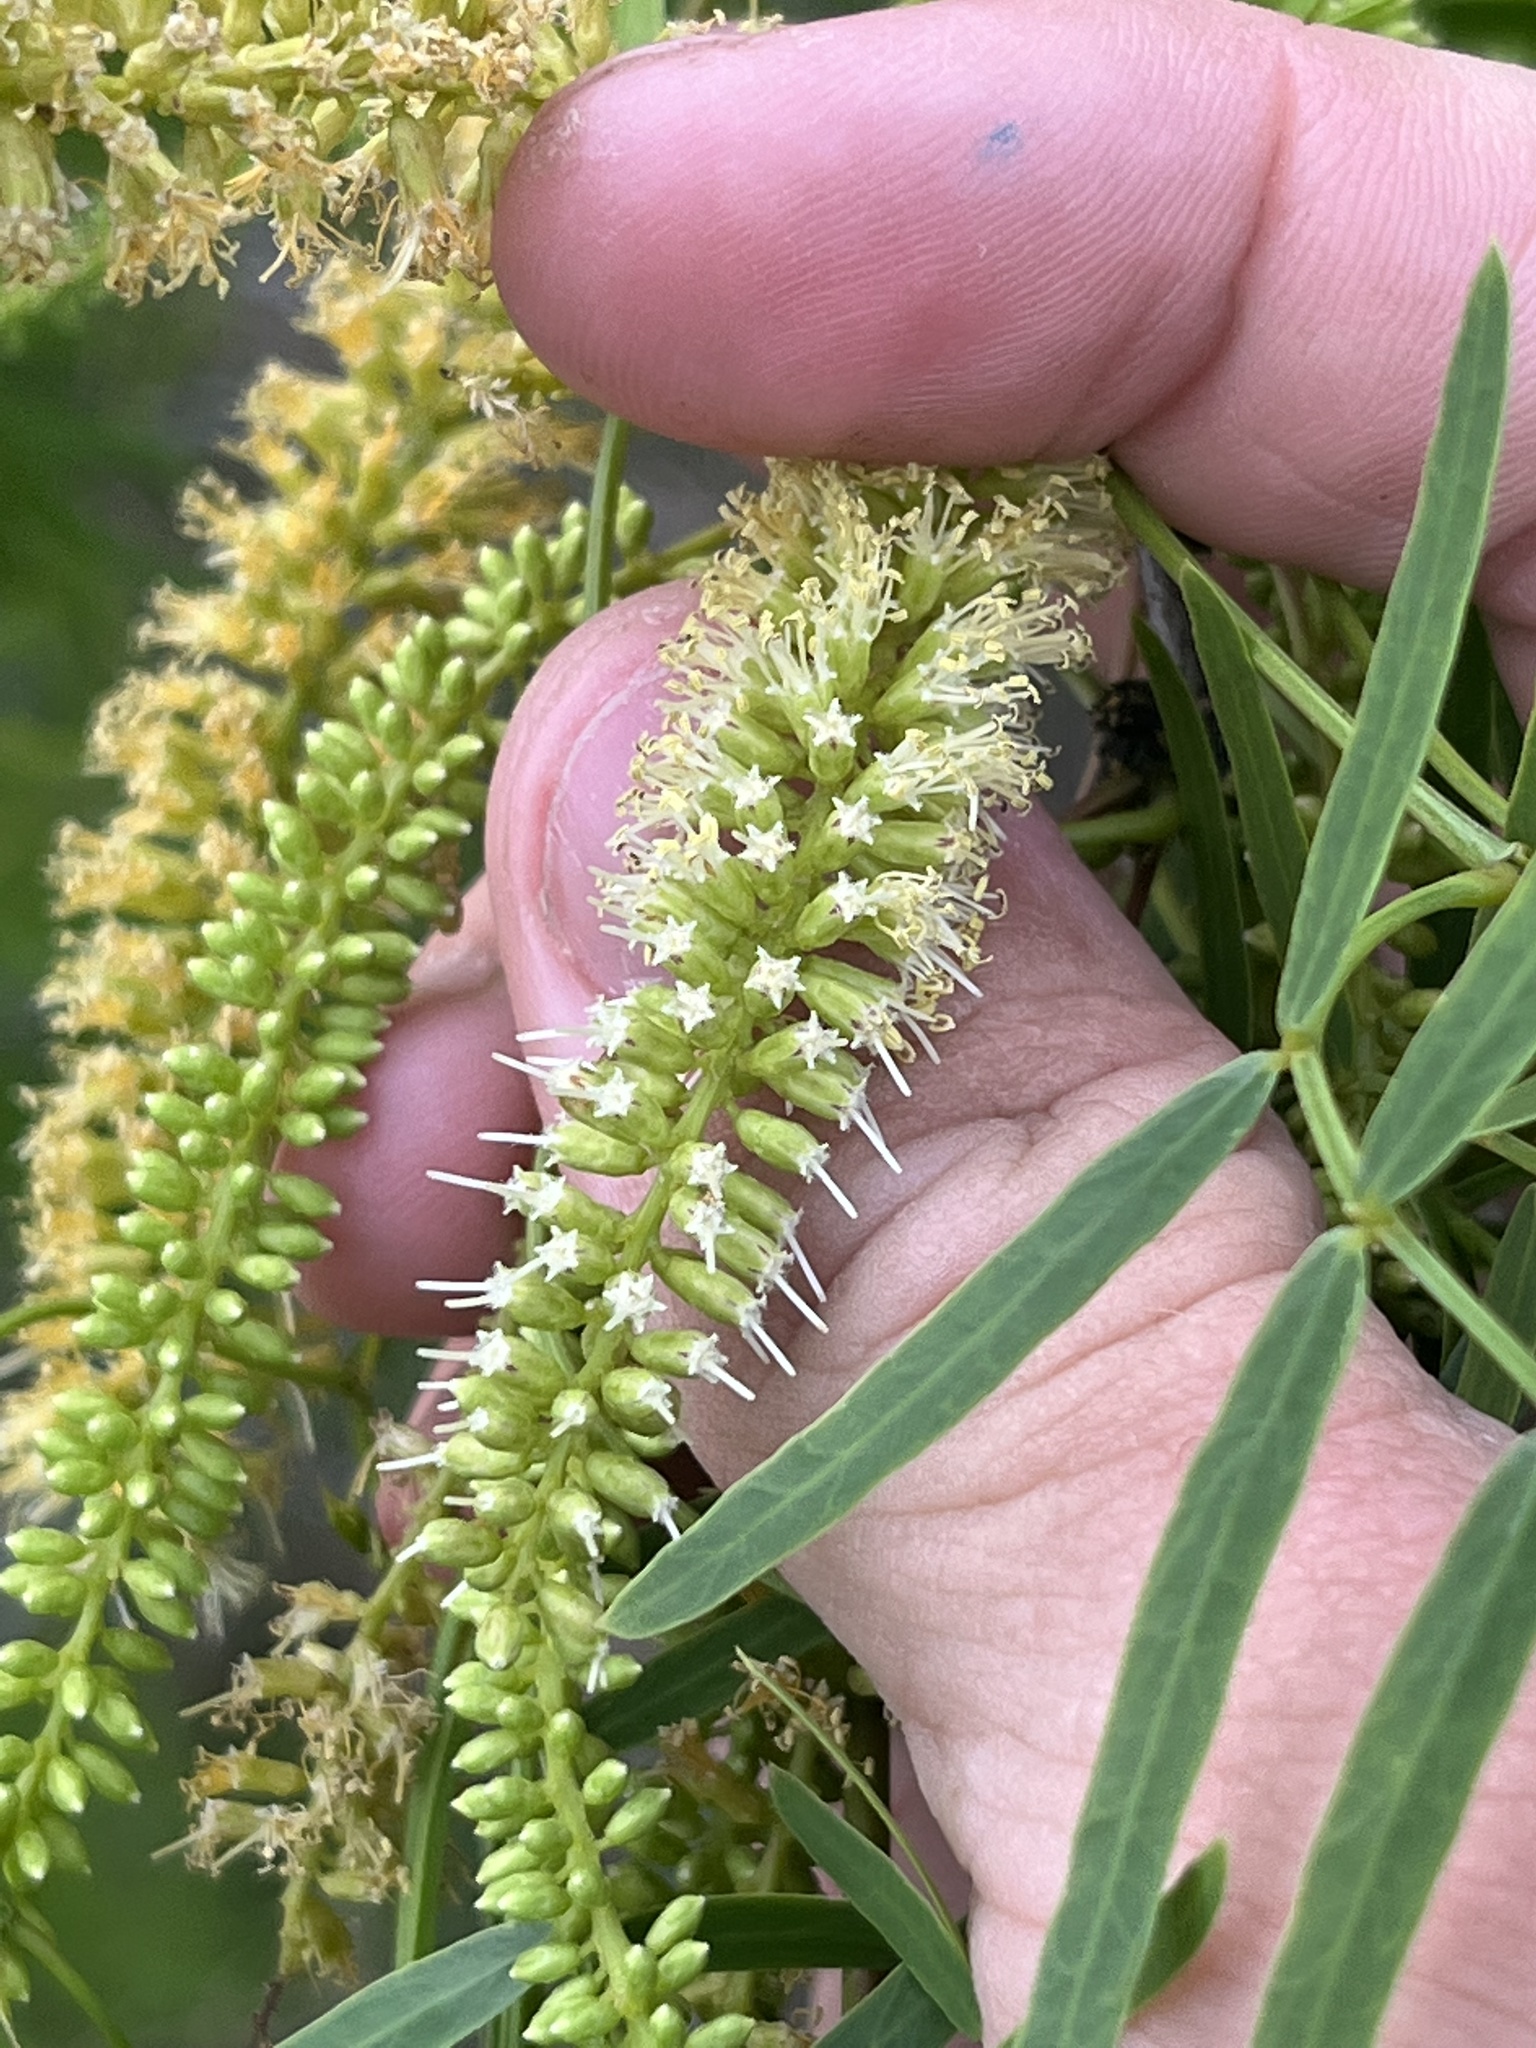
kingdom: Plantae
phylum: Tracheophyta
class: Magnoliopsida
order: Fabales
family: Fabaceae
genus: Prosopis
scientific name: Prosopis glandulosa
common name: Honey mesquite
